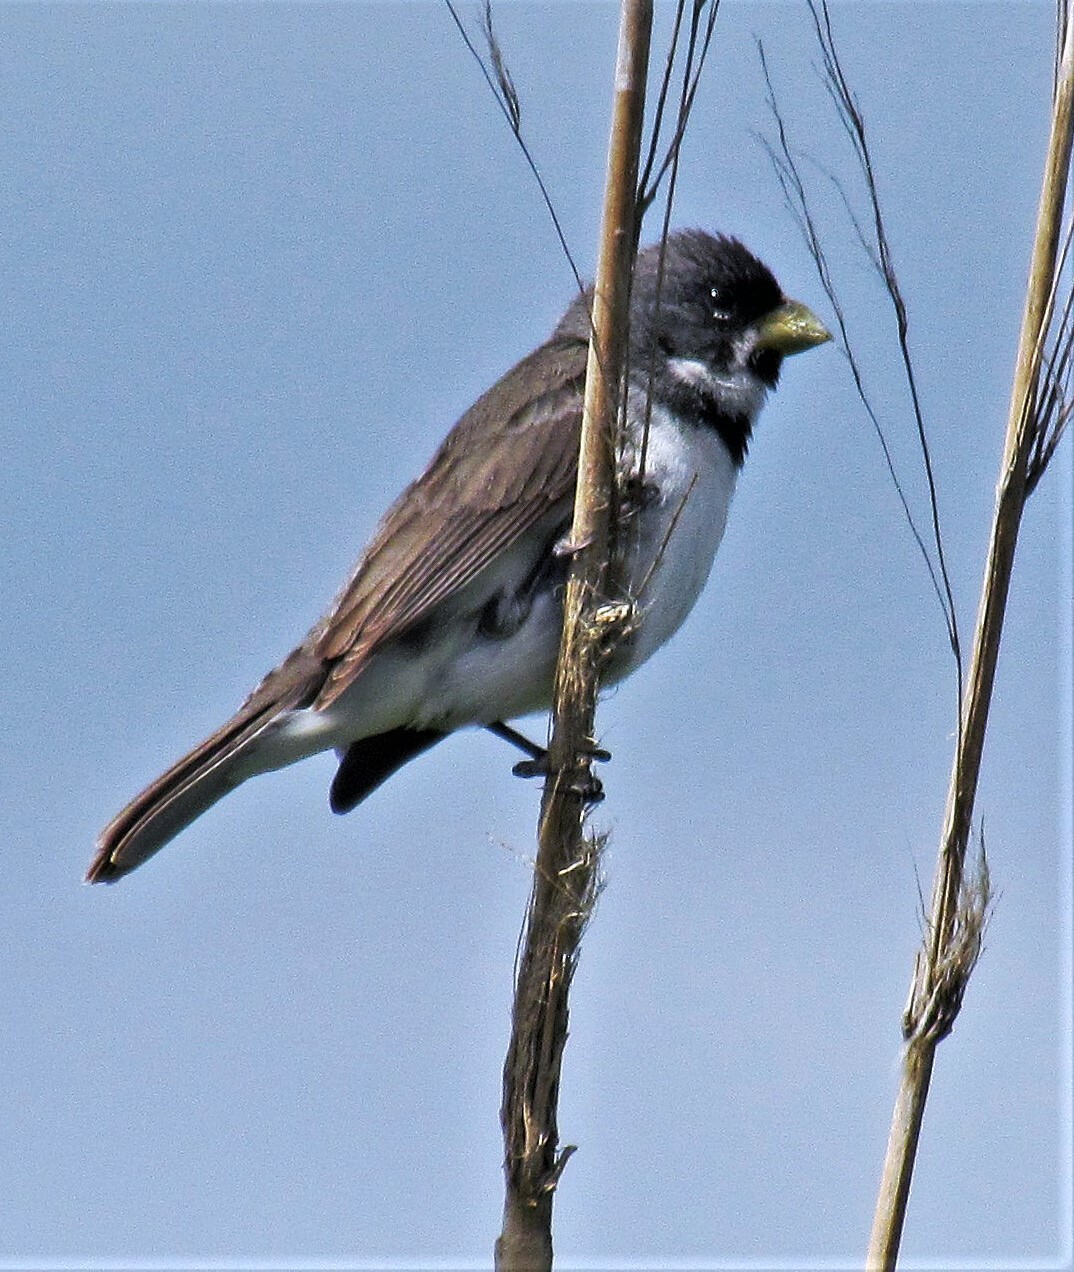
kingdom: Animalia
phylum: Chordata
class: Aves
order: Passeriformes
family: Thraupidae
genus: Sporophila
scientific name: Sporophila caerulescens
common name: Double-collared seedeater
